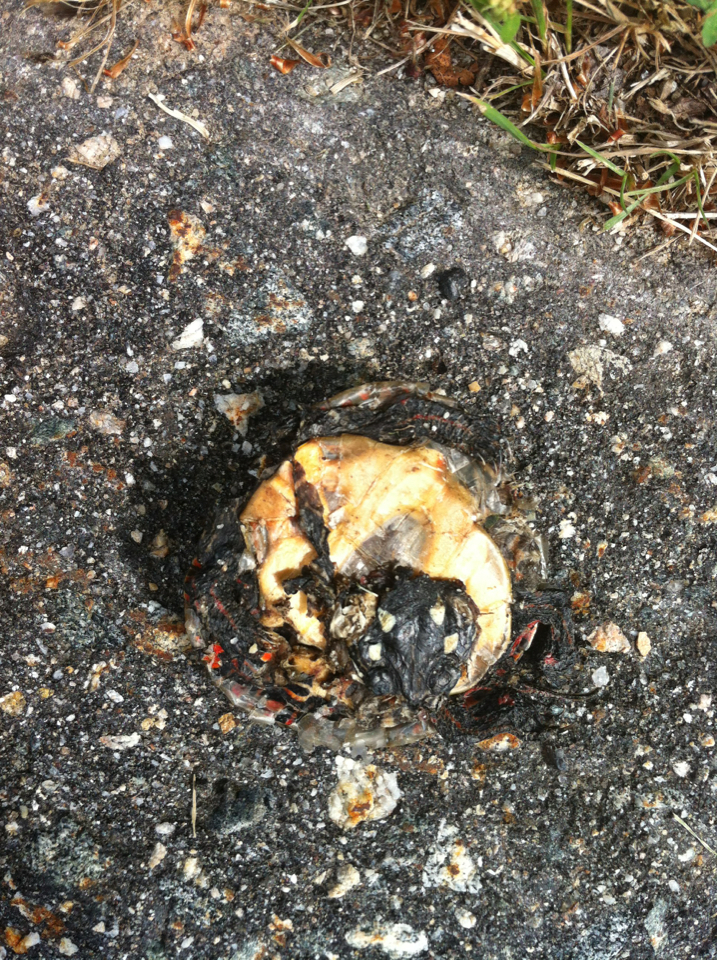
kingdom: Animalia
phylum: Chordata
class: Testudines
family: Emydidae
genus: Chrysemys
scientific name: Chrysemys picta
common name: Painted turtle
